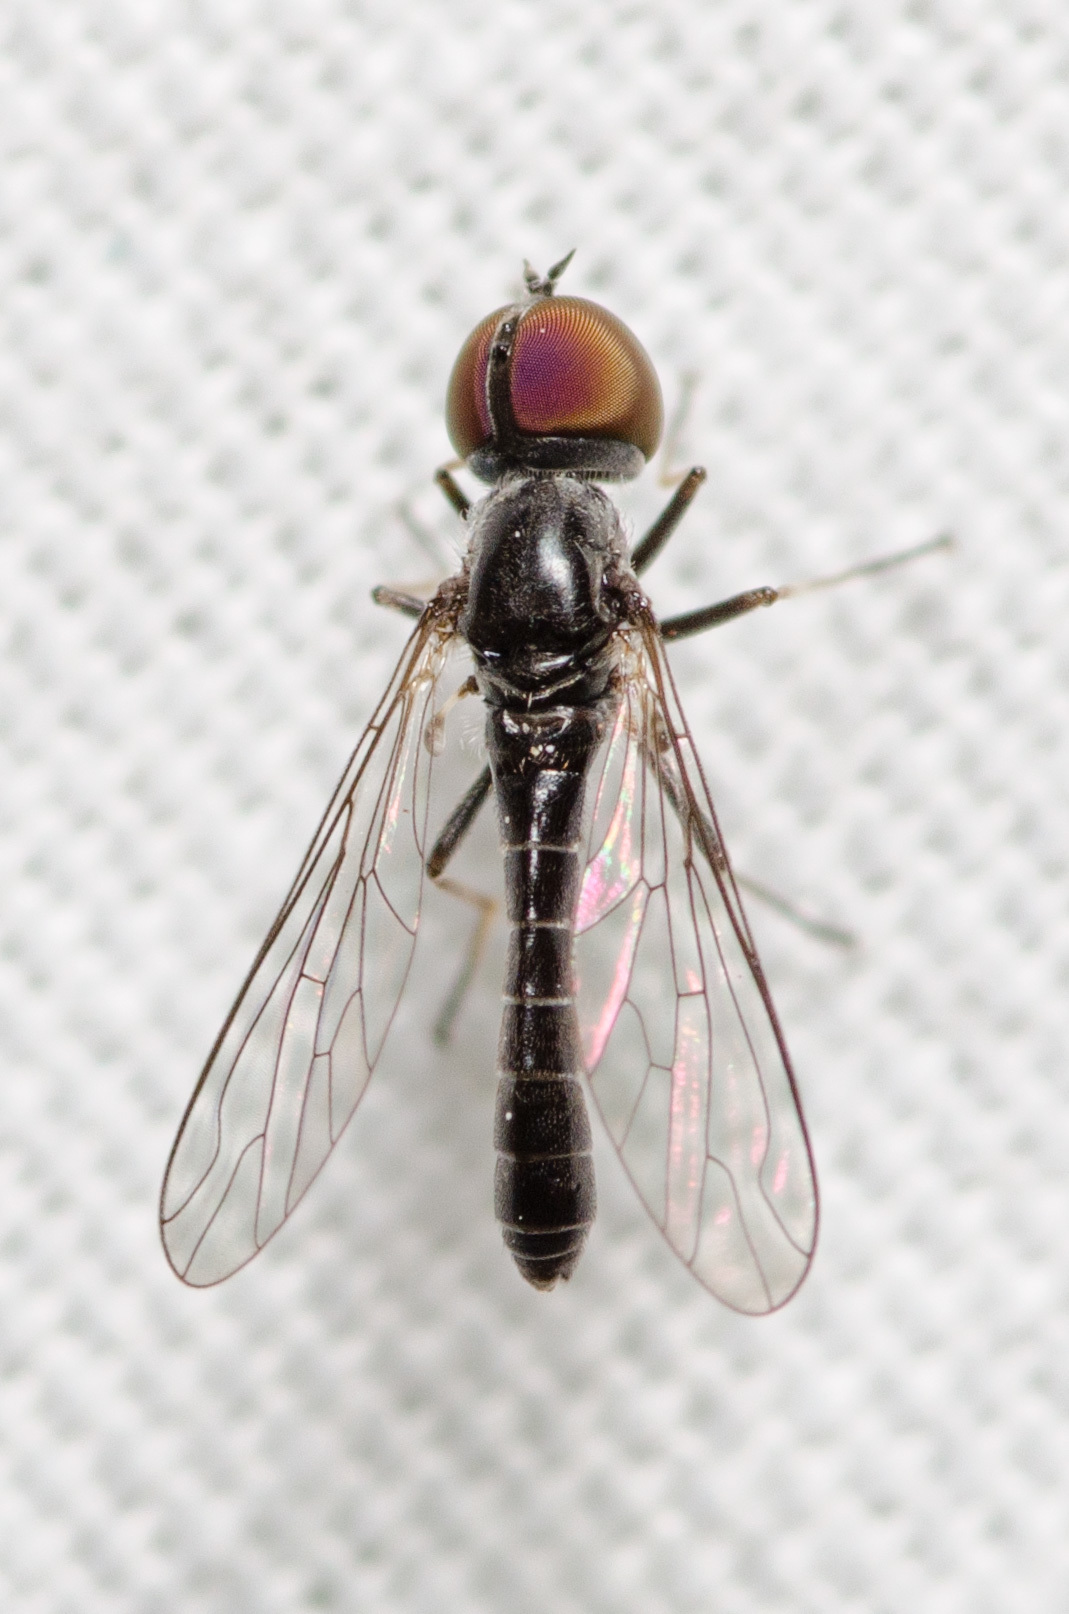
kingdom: Animalia
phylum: Arthropoda
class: Insecta
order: Diptera
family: Bombyliidae
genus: Metacosmus
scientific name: Metacosmus mancipennis
